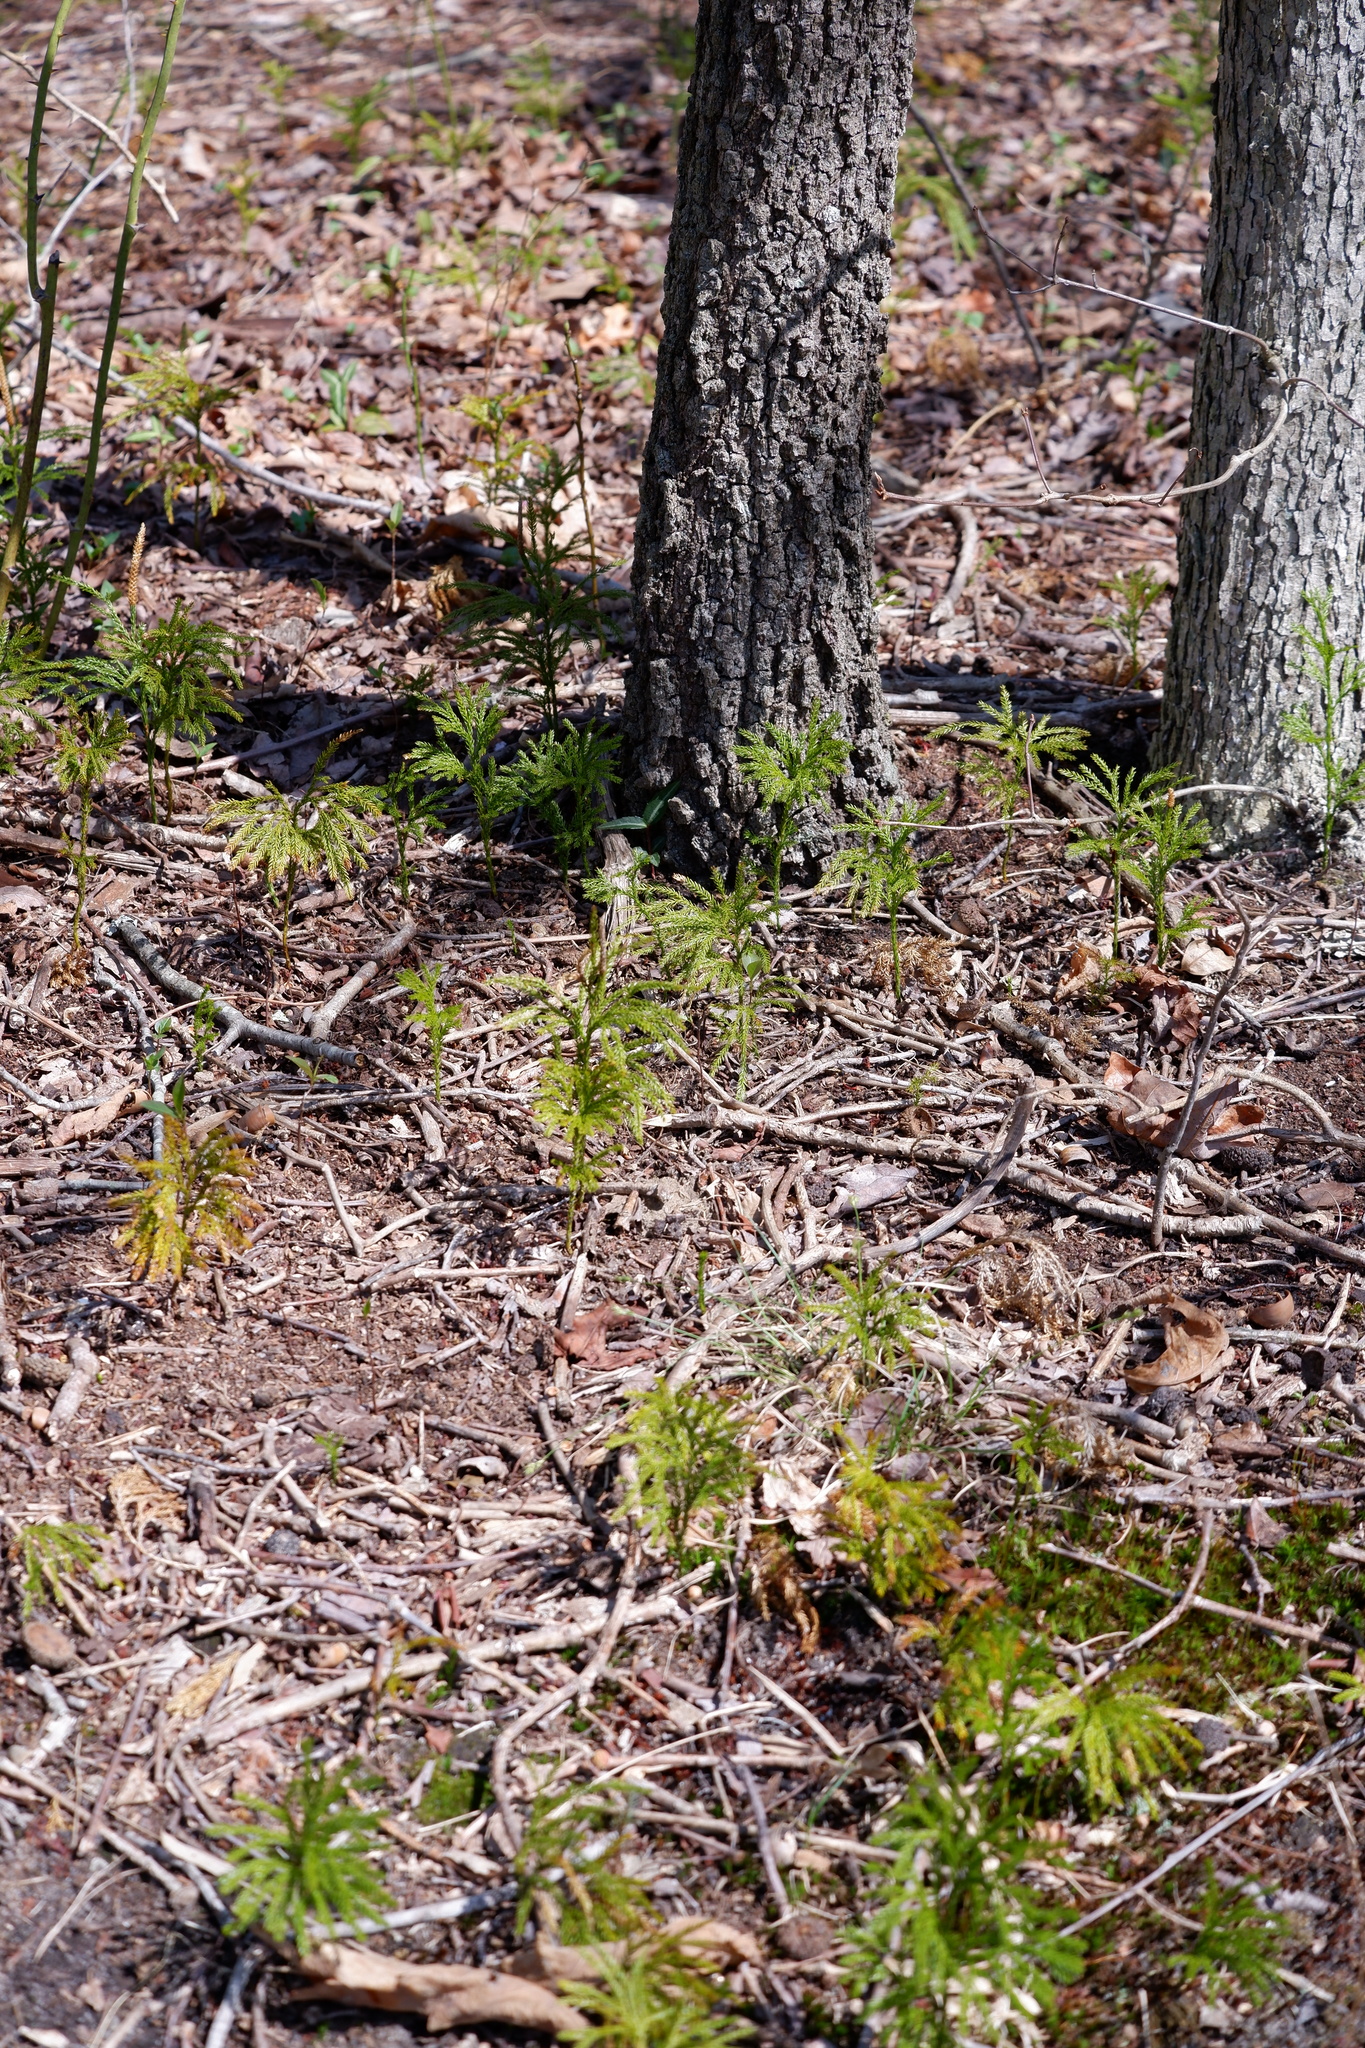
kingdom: Plantae
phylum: Tracheophyta
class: Lycopodiopsida
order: Lycopodiales
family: Lycopodiaceae
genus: Dendrolycopodium
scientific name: Dendrolycopodium obscurum
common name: Common ground-pine
